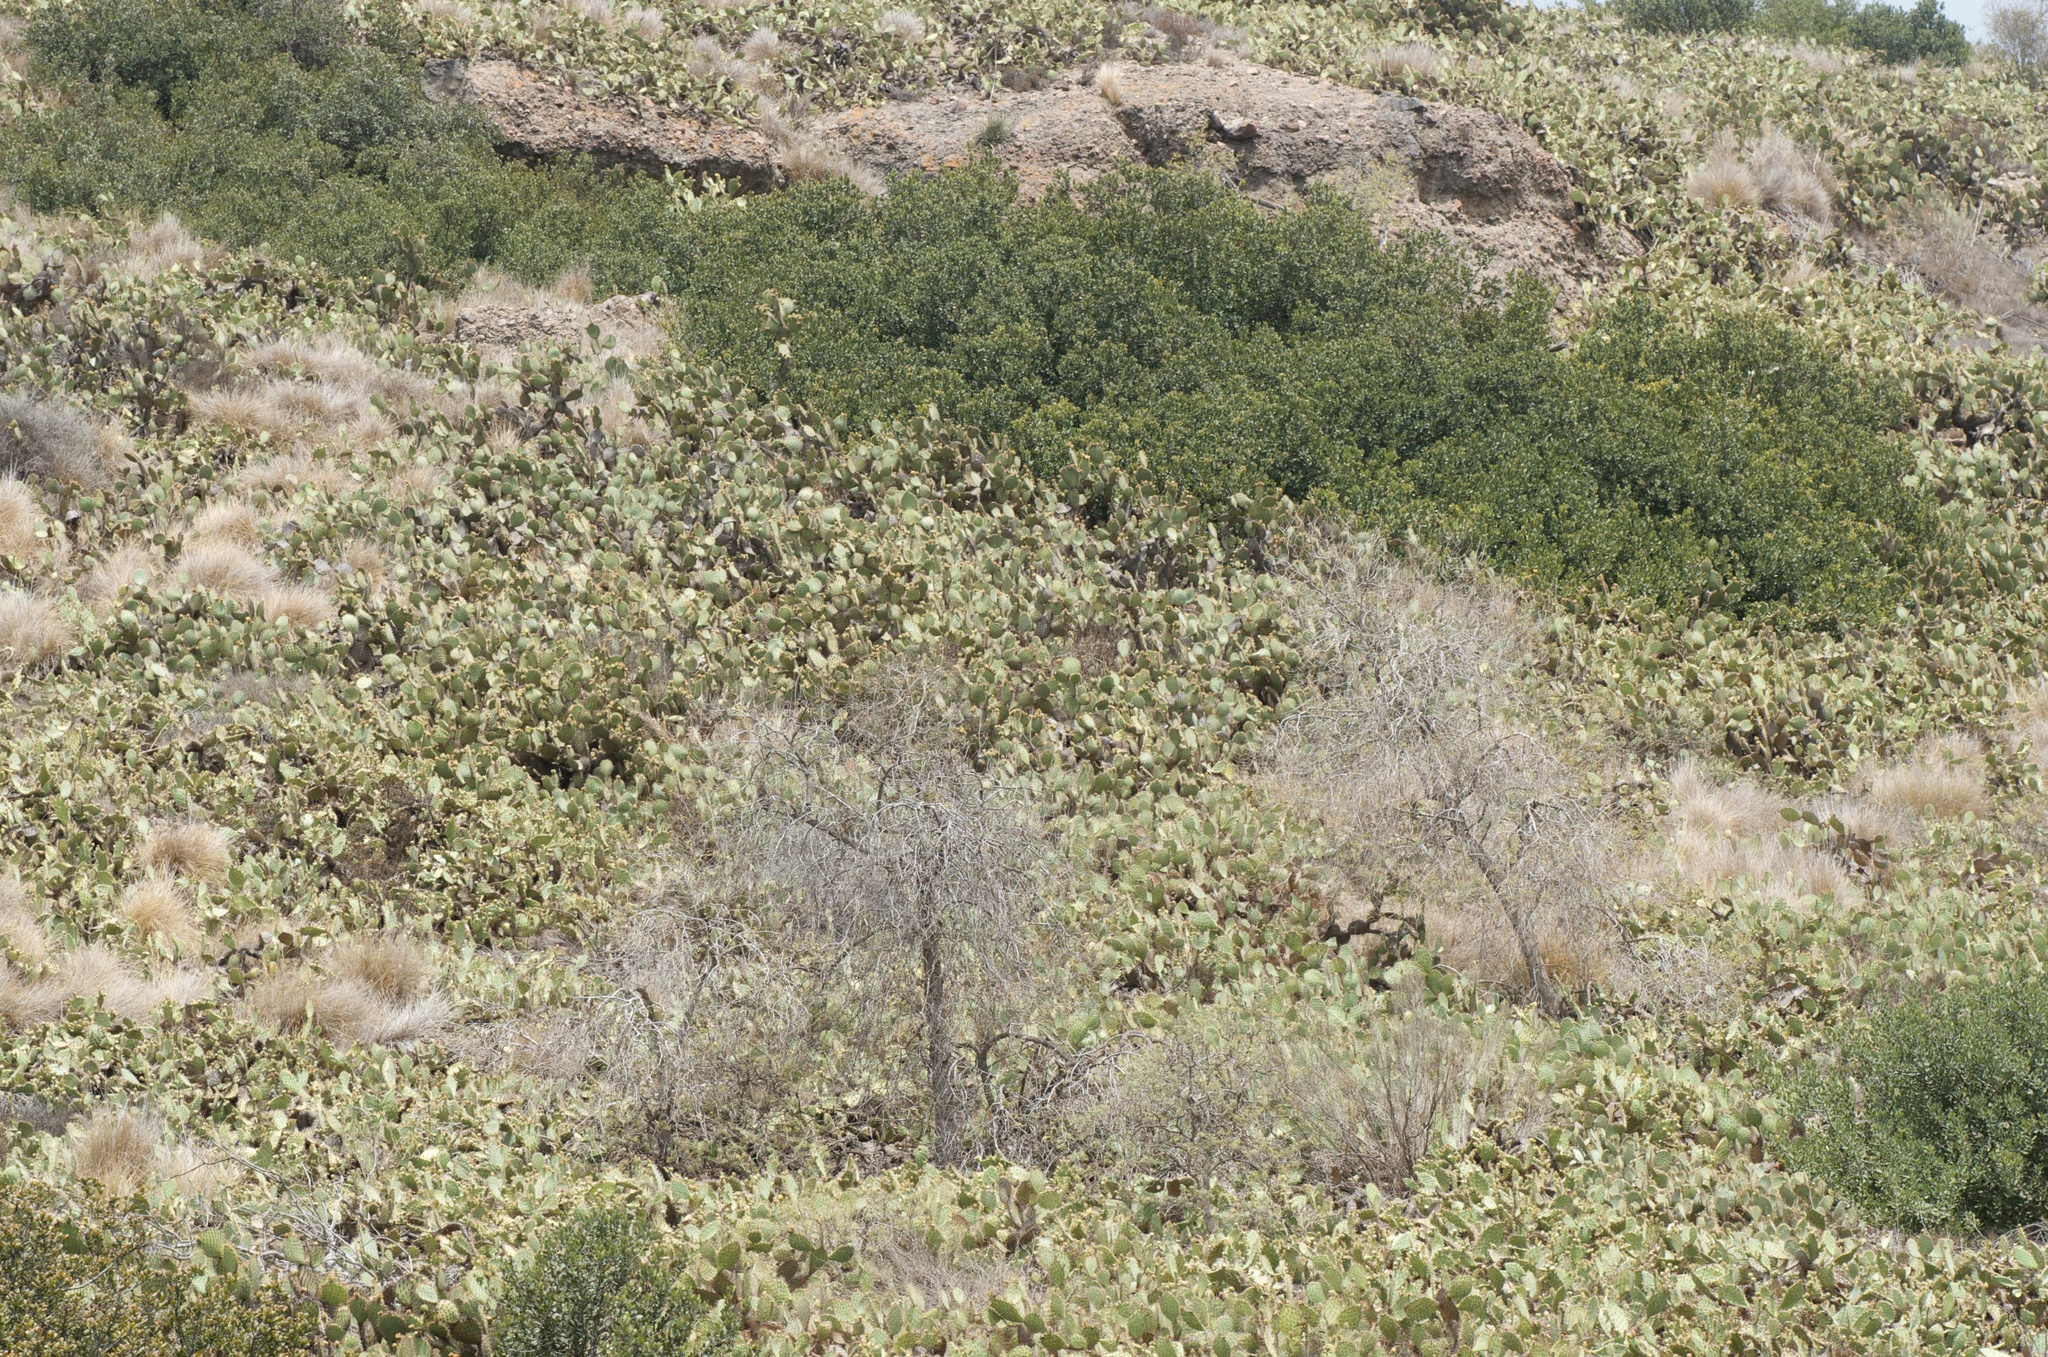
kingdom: Plantae
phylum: Tracheophyta
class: Magnoliopsida
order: Caryophyllales
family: Cactaceae
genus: Opuntia
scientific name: Opuntia littoralis
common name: Coastal prickly-pear
